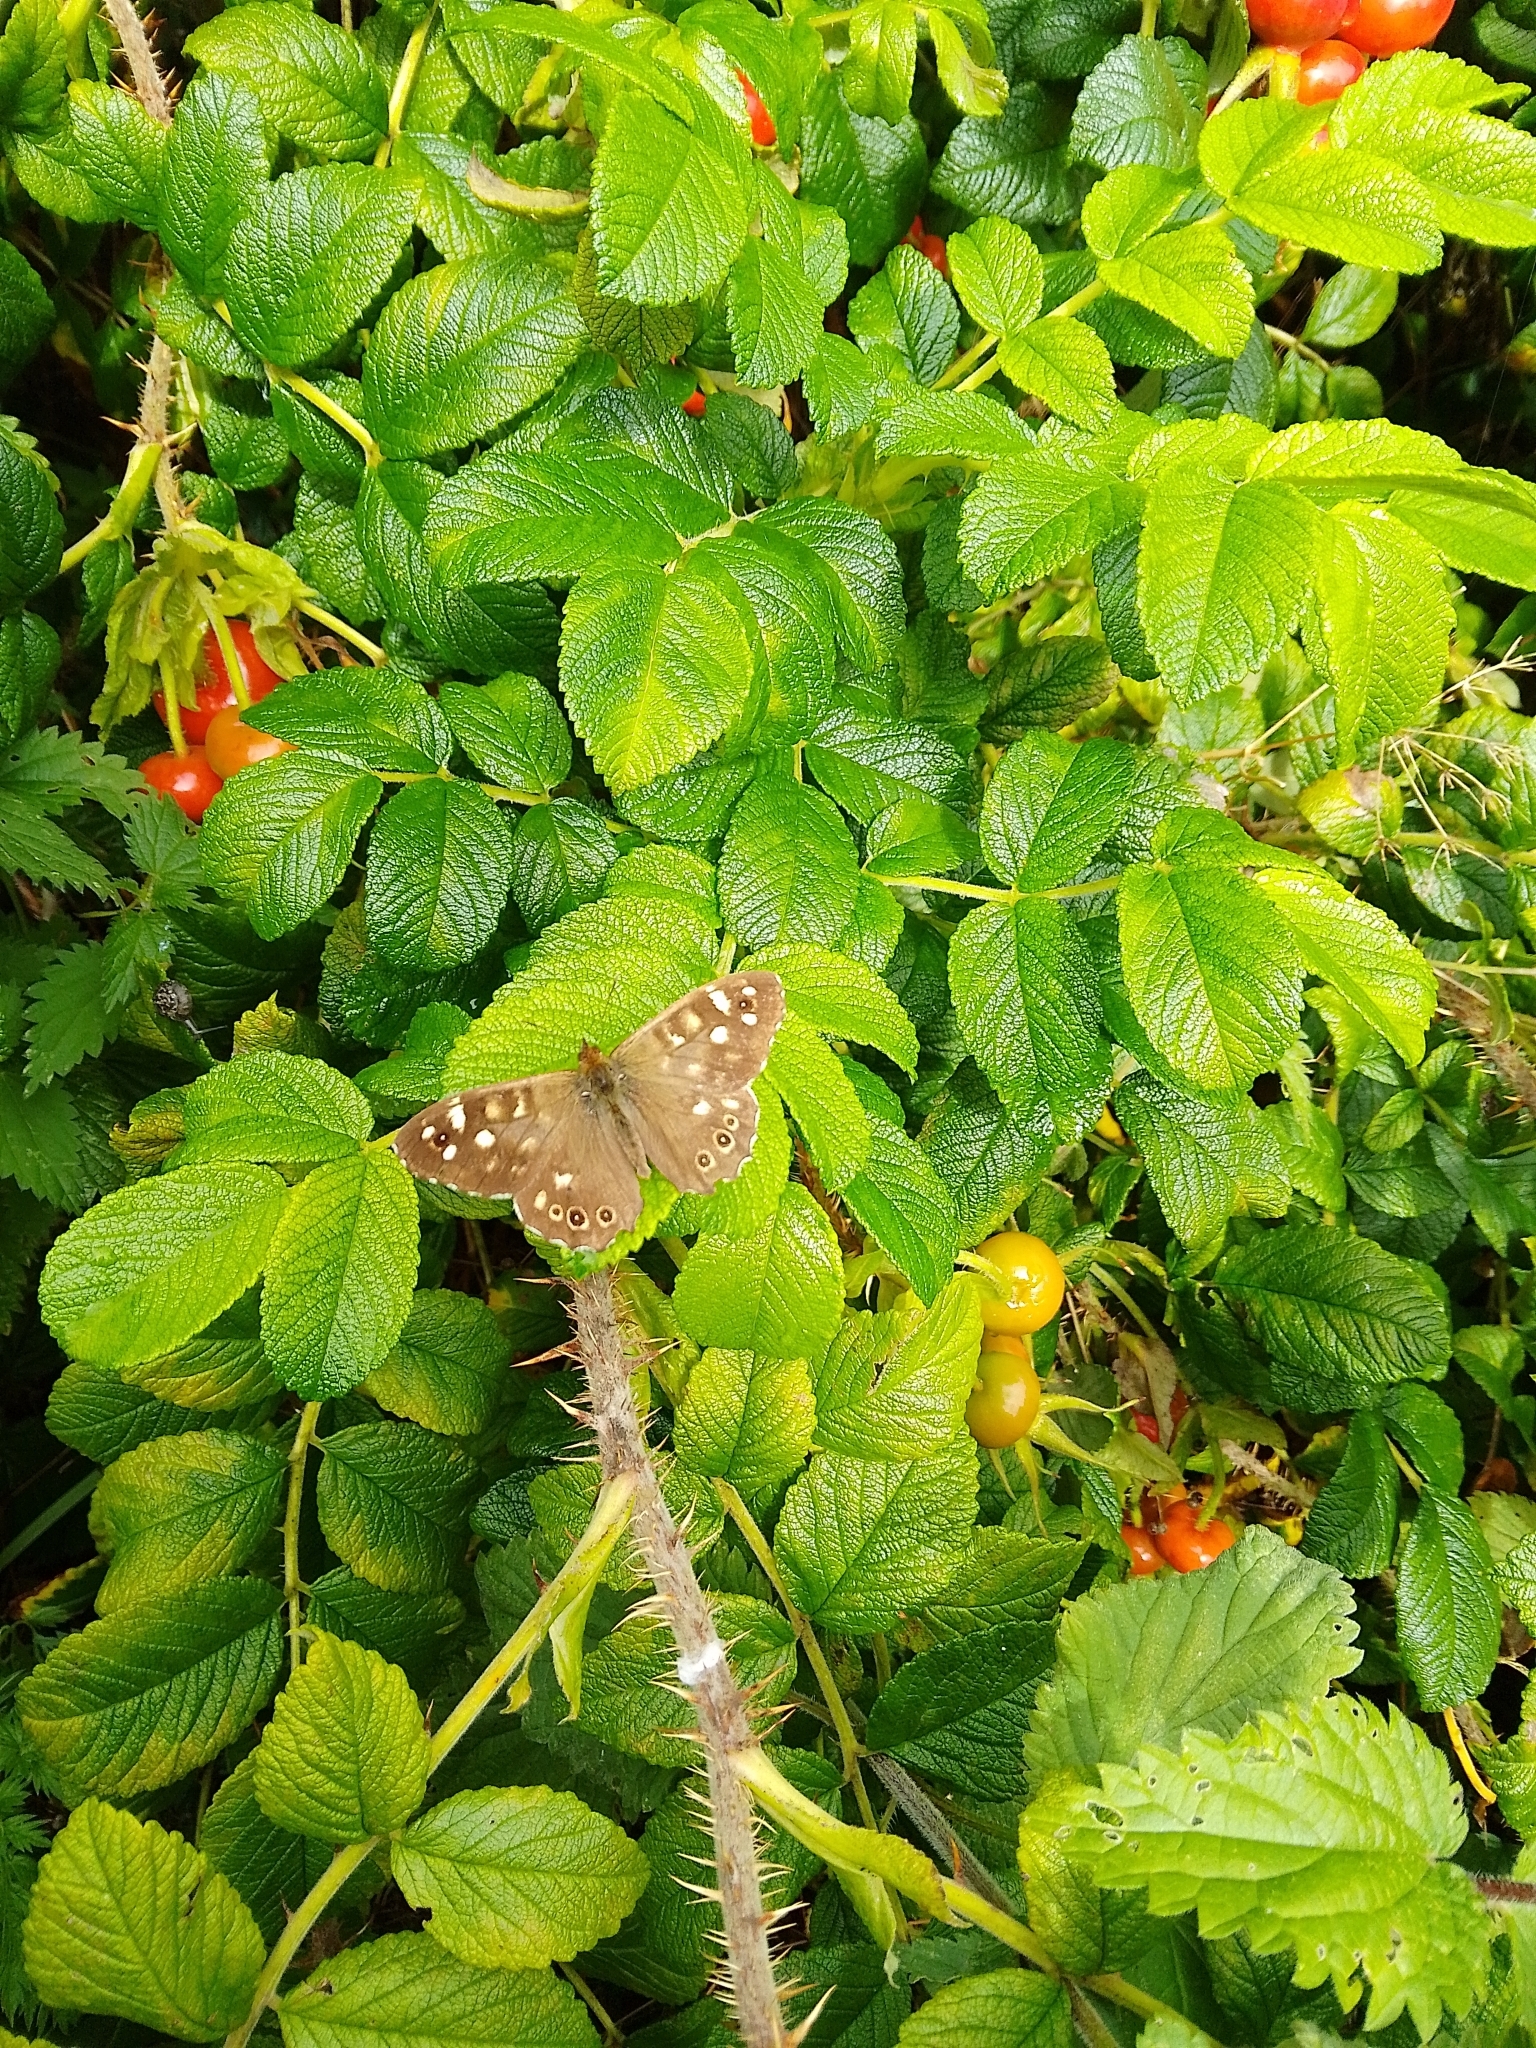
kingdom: Animalia
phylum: Arthropoda
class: Insecta
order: Lepidoptera
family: Nymphalidae
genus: Pararge
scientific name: Pararge aegeria
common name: Speckled wood
